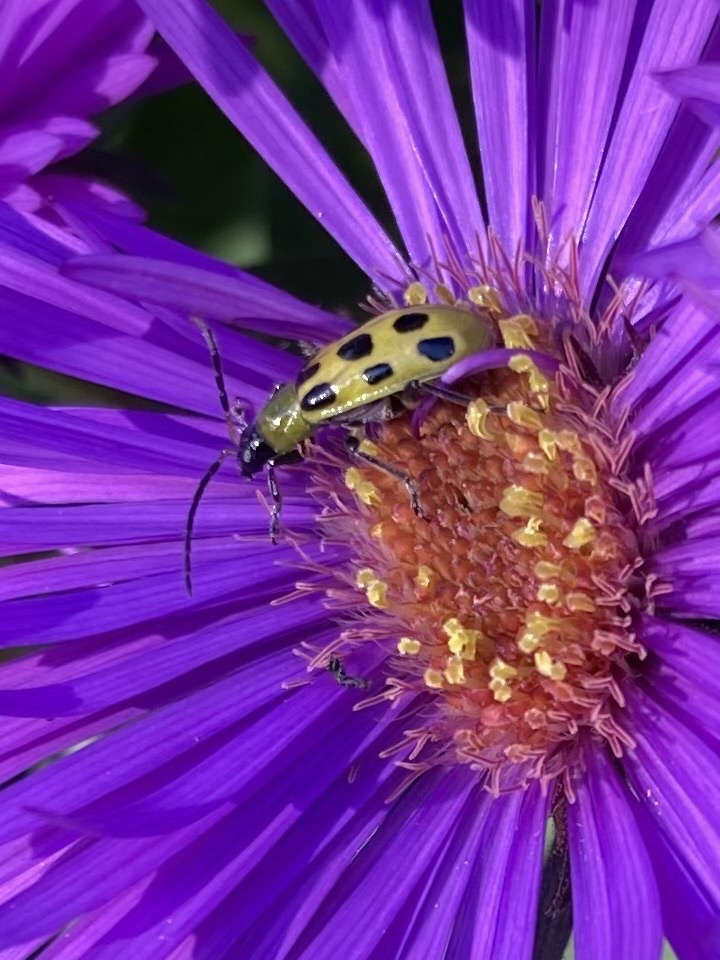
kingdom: Animalia
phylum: Arthropoda
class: Insecta
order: Coleoptera
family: Chrysomelidae
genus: Diabrotica
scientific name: Diabrotica undecimpunctata
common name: Spotted cucumber beetle
